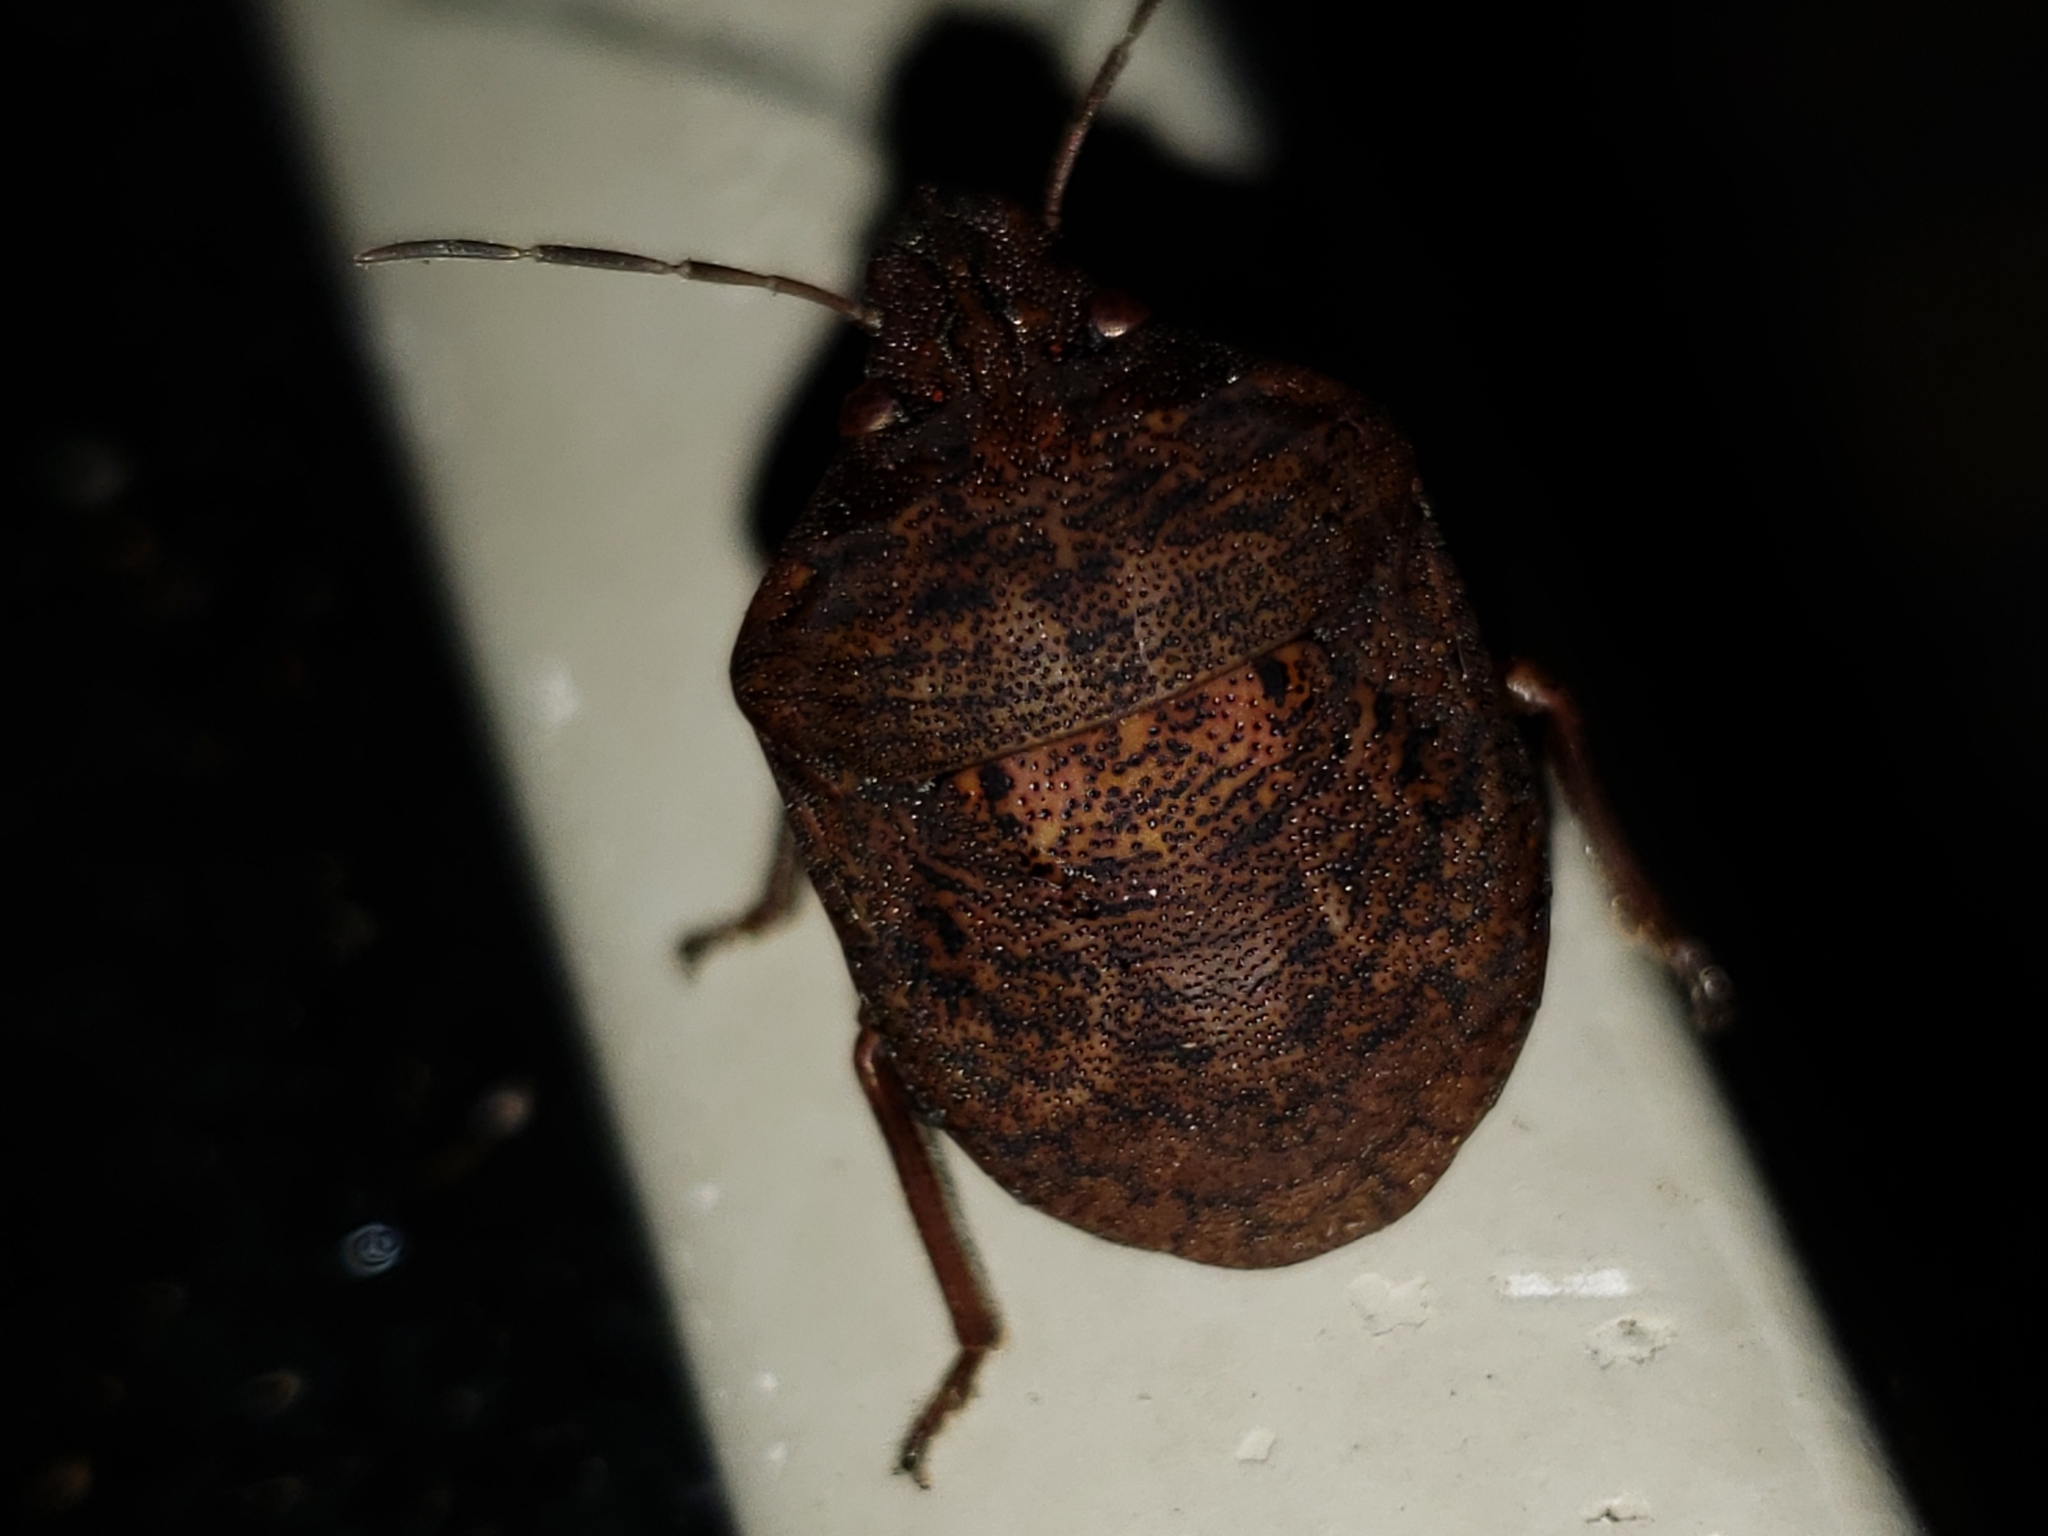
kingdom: Animalia
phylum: Arthropoda
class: Insecta
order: Hemiptera
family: Scutelleridae
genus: Tetyra
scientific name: Tetyra bipunctata
